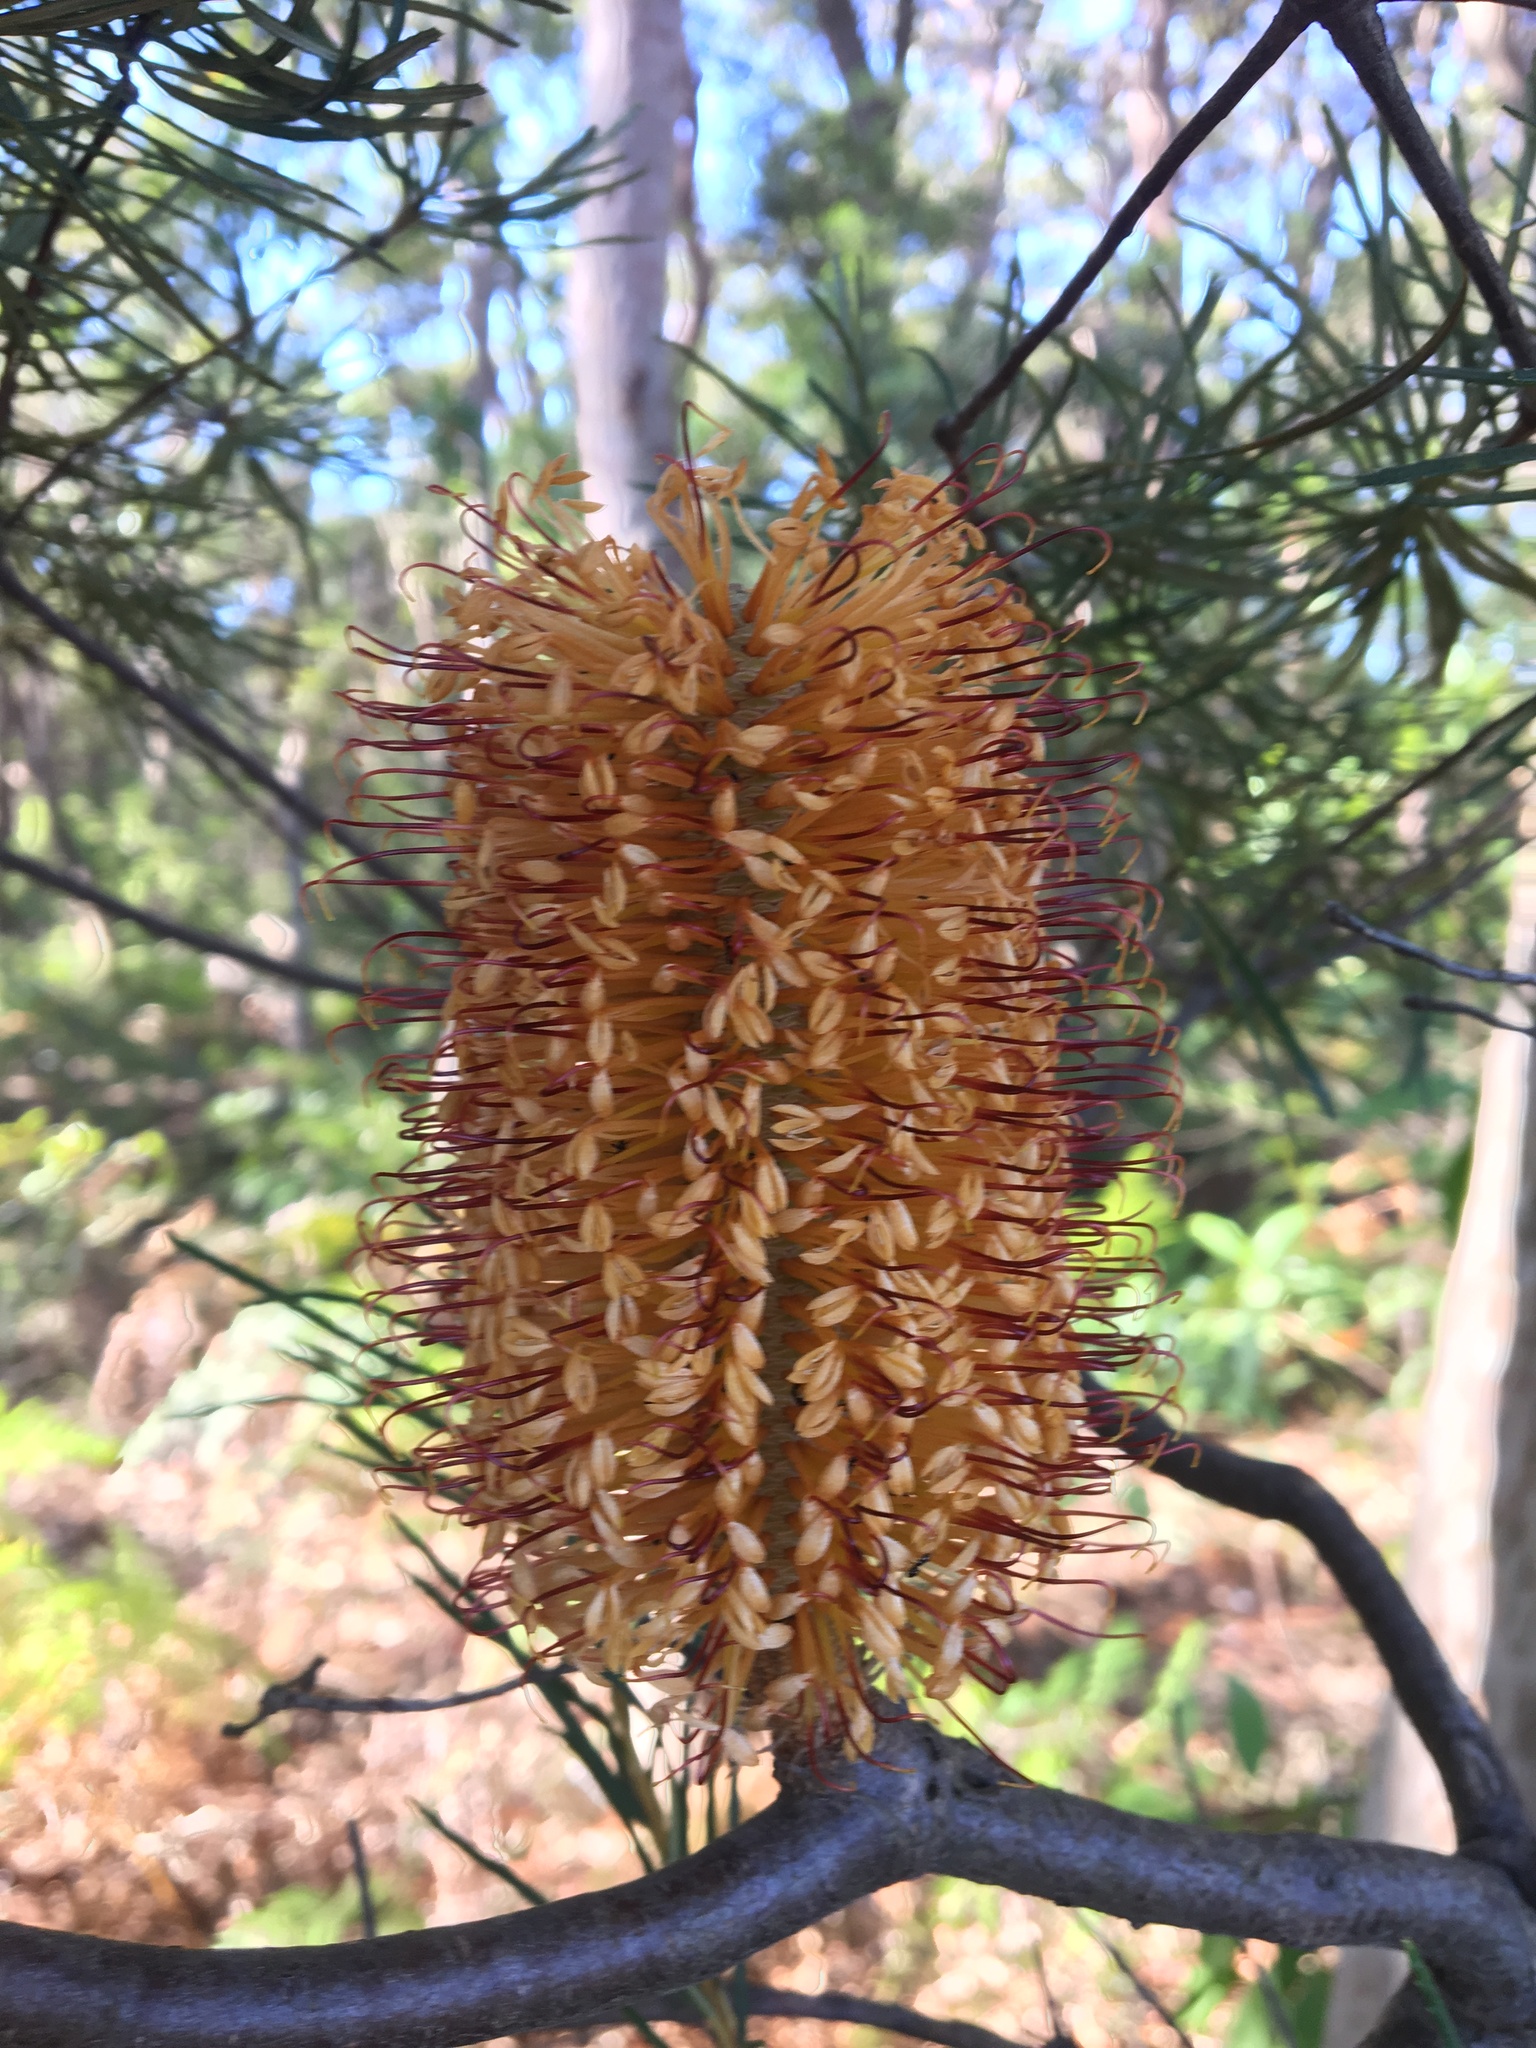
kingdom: Plantae
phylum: Tracheophyta
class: Magnoliopsida
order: Proteales
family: Proteaceae
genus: Banksia
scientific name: Banksia spinulosa
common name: Hairpin banksia
